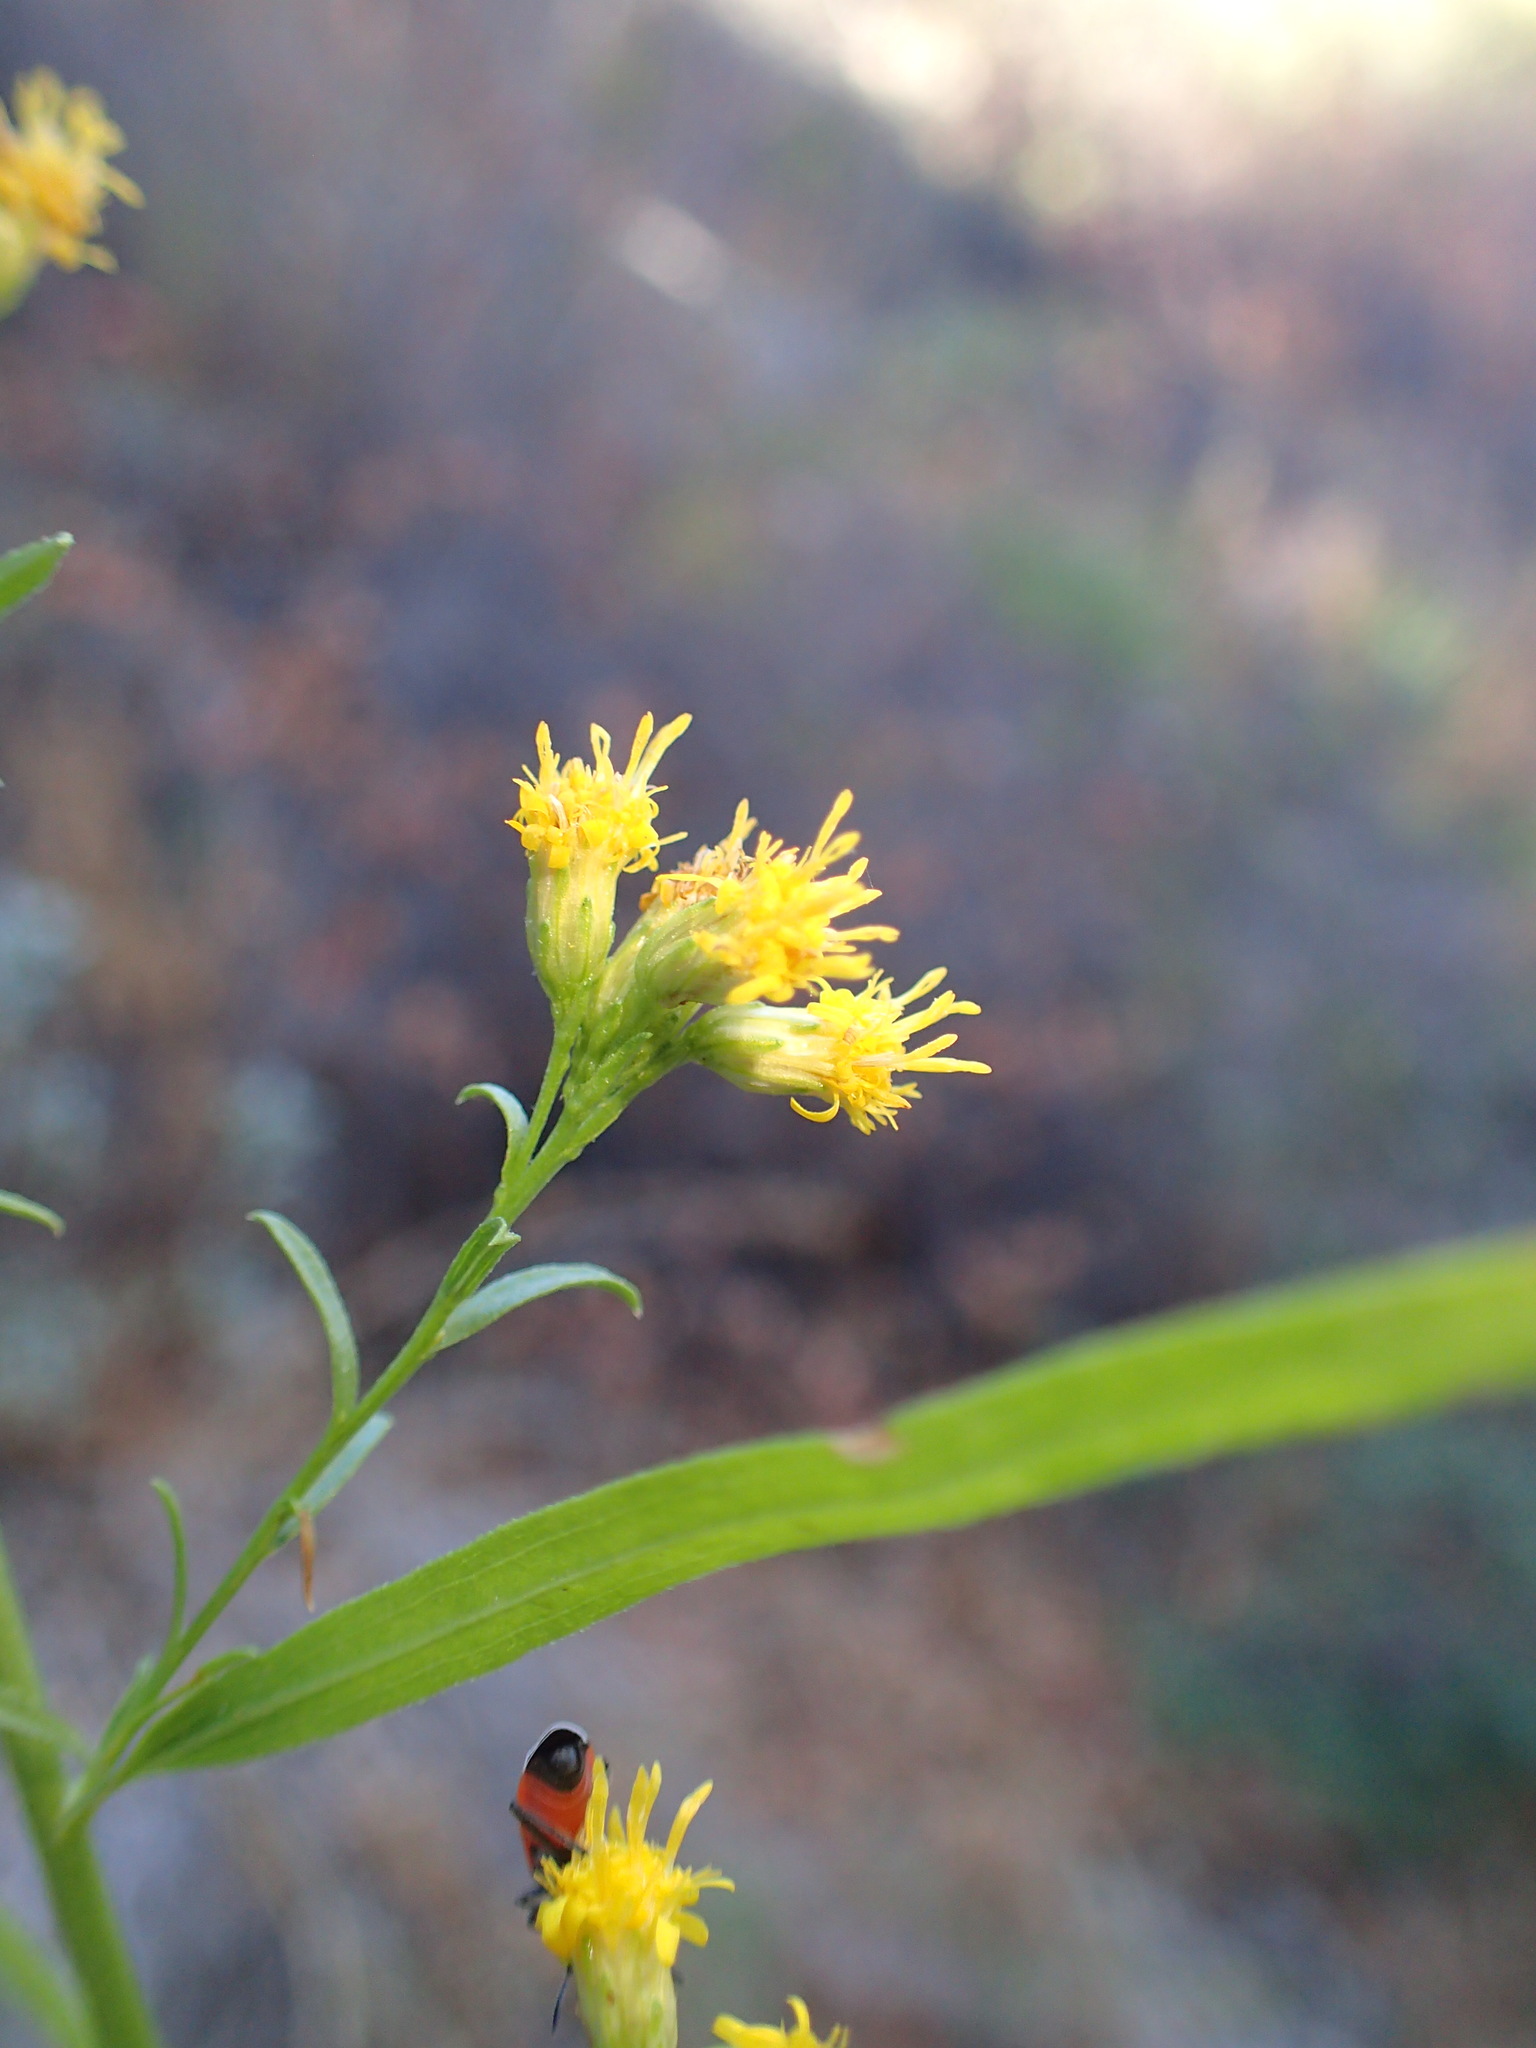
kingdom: Plantae
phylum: Tracheophyta
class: Magnoliopsida
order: Asterales
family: Asteraceae
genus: Euthamia
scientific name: Euthamia occidentalis
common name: Western goldentop
